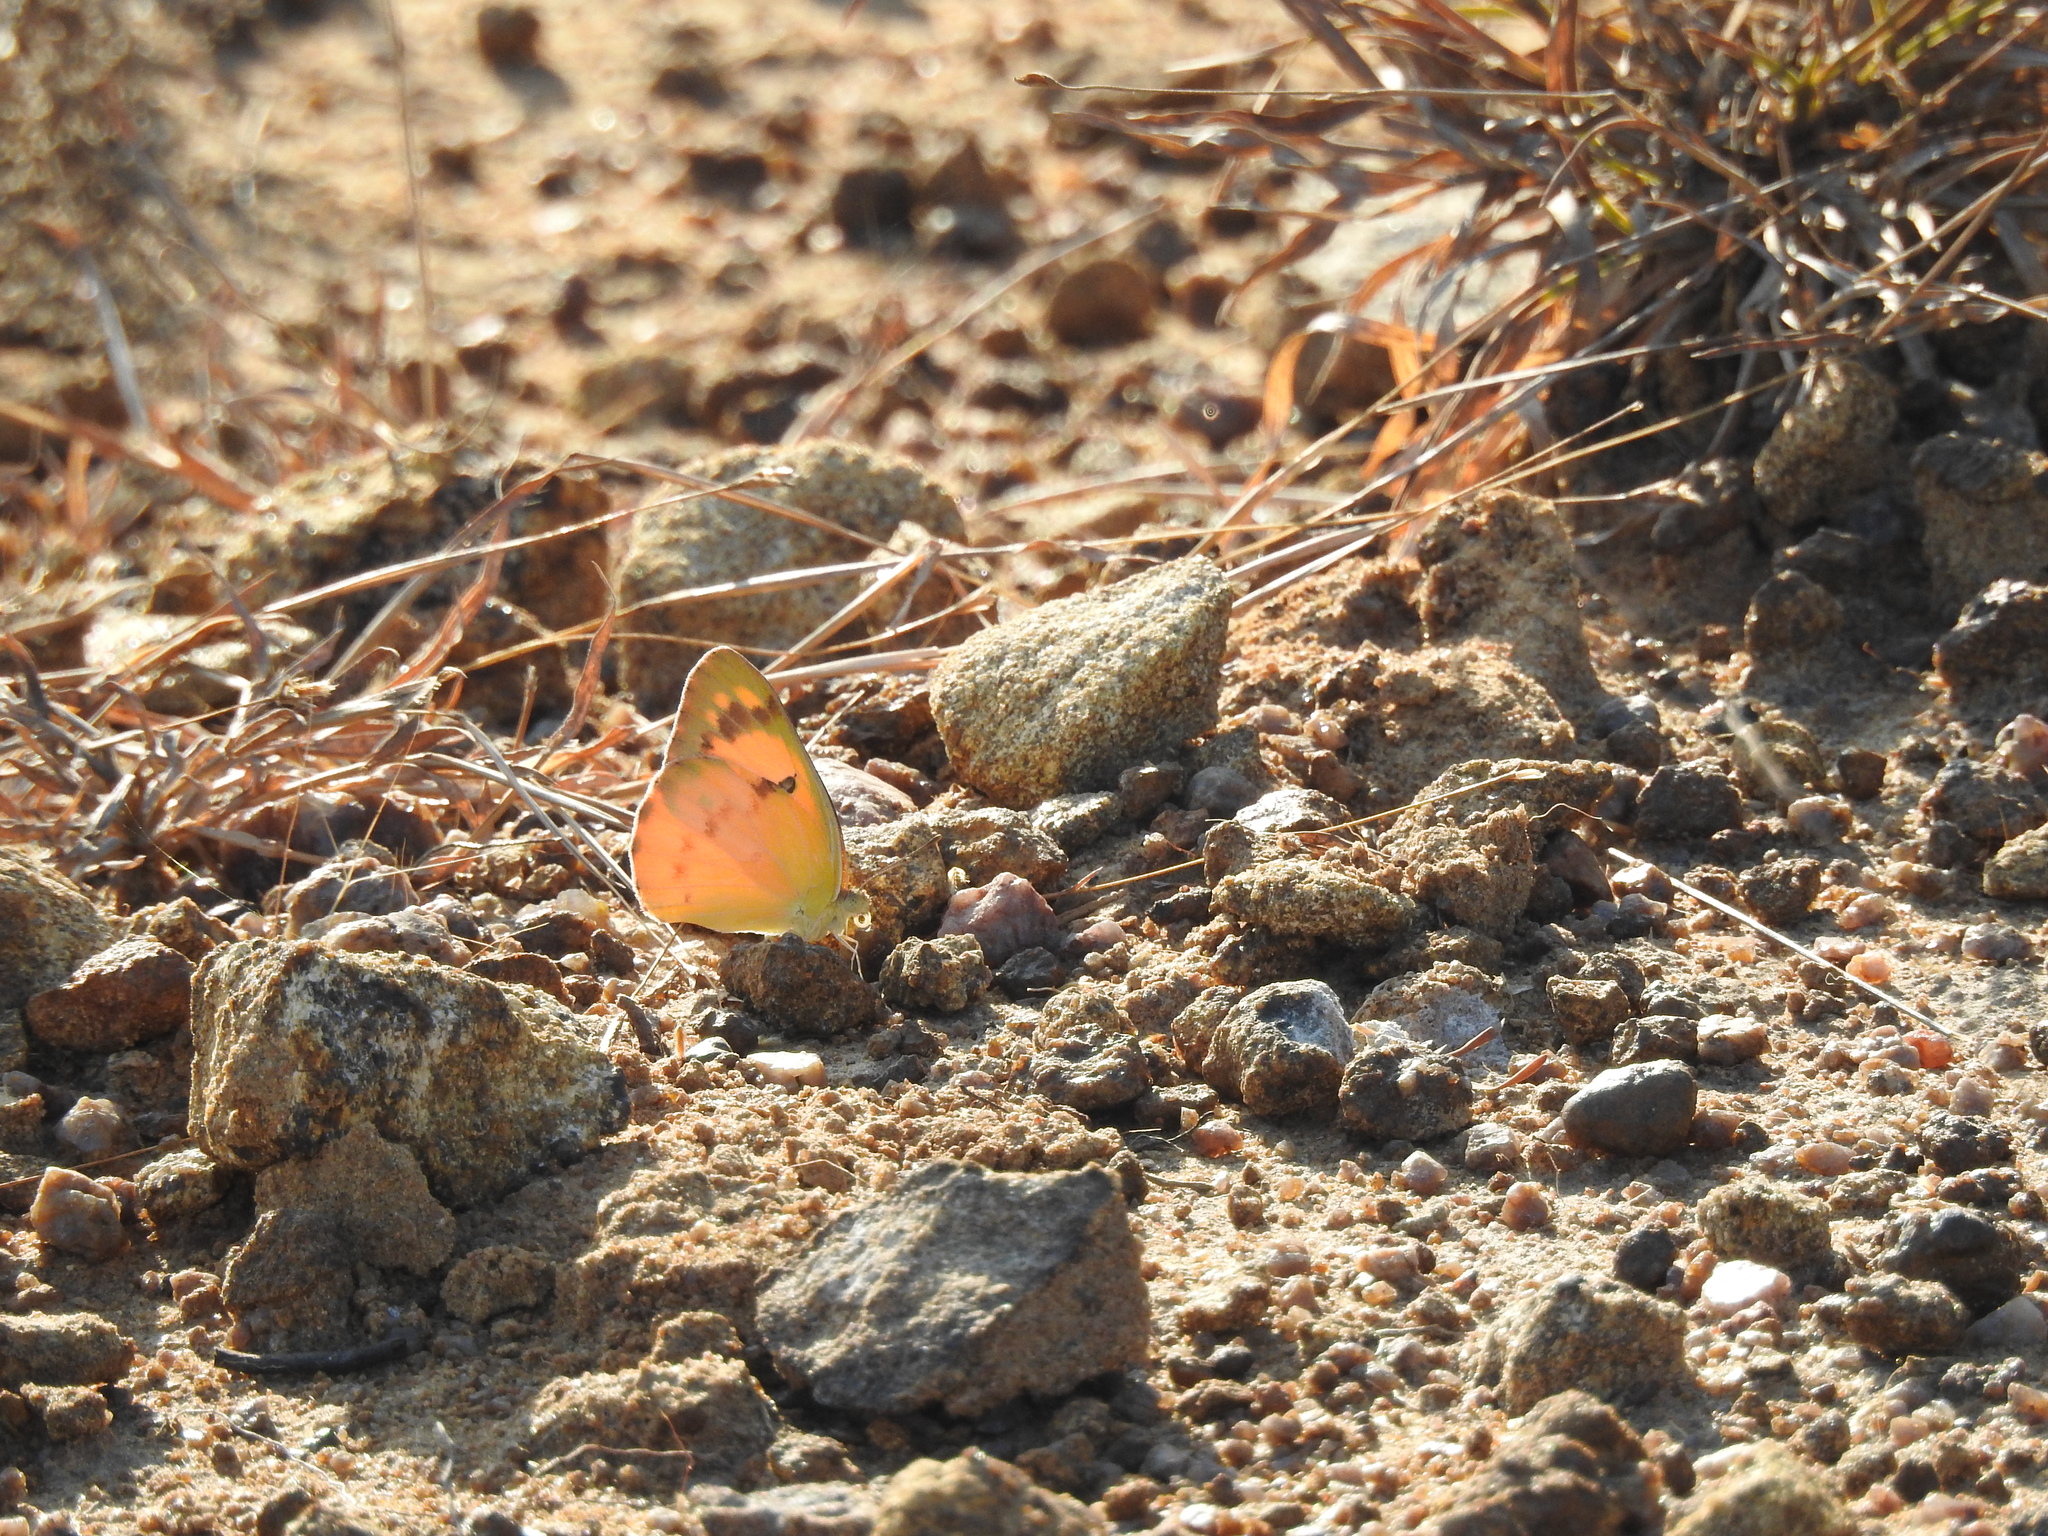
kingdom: Animalia
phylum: Arthropoda
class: Insecta
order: Lepidoptera
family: Pieridae
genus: Colotis
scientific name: Colotis fausta
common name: Large salmon arab
